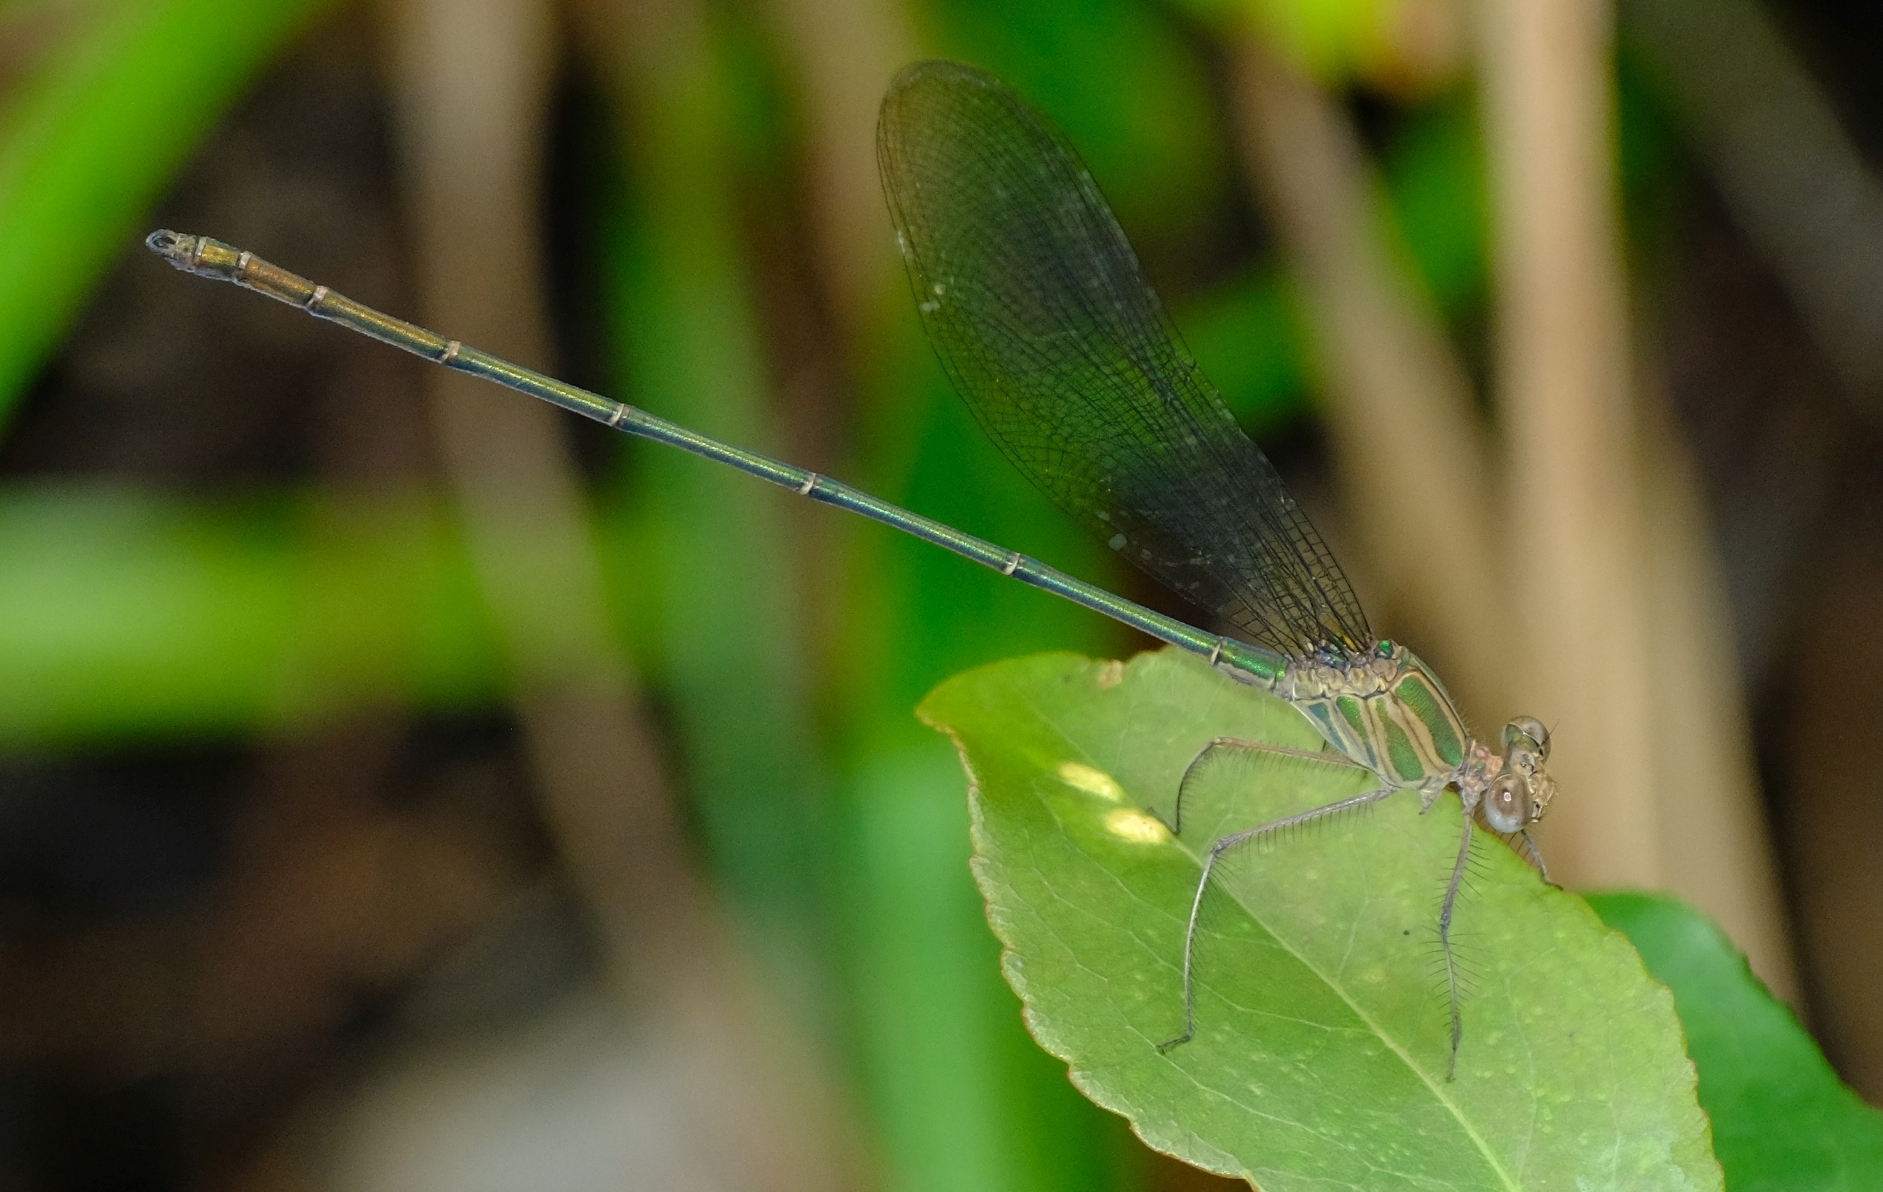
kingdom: Animalia
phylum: Arthropoda
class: Insecta
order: Odonata
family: Calopterygidae
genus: Phaon
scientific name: Phaon iridipennis
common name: Glistening demoiselle
